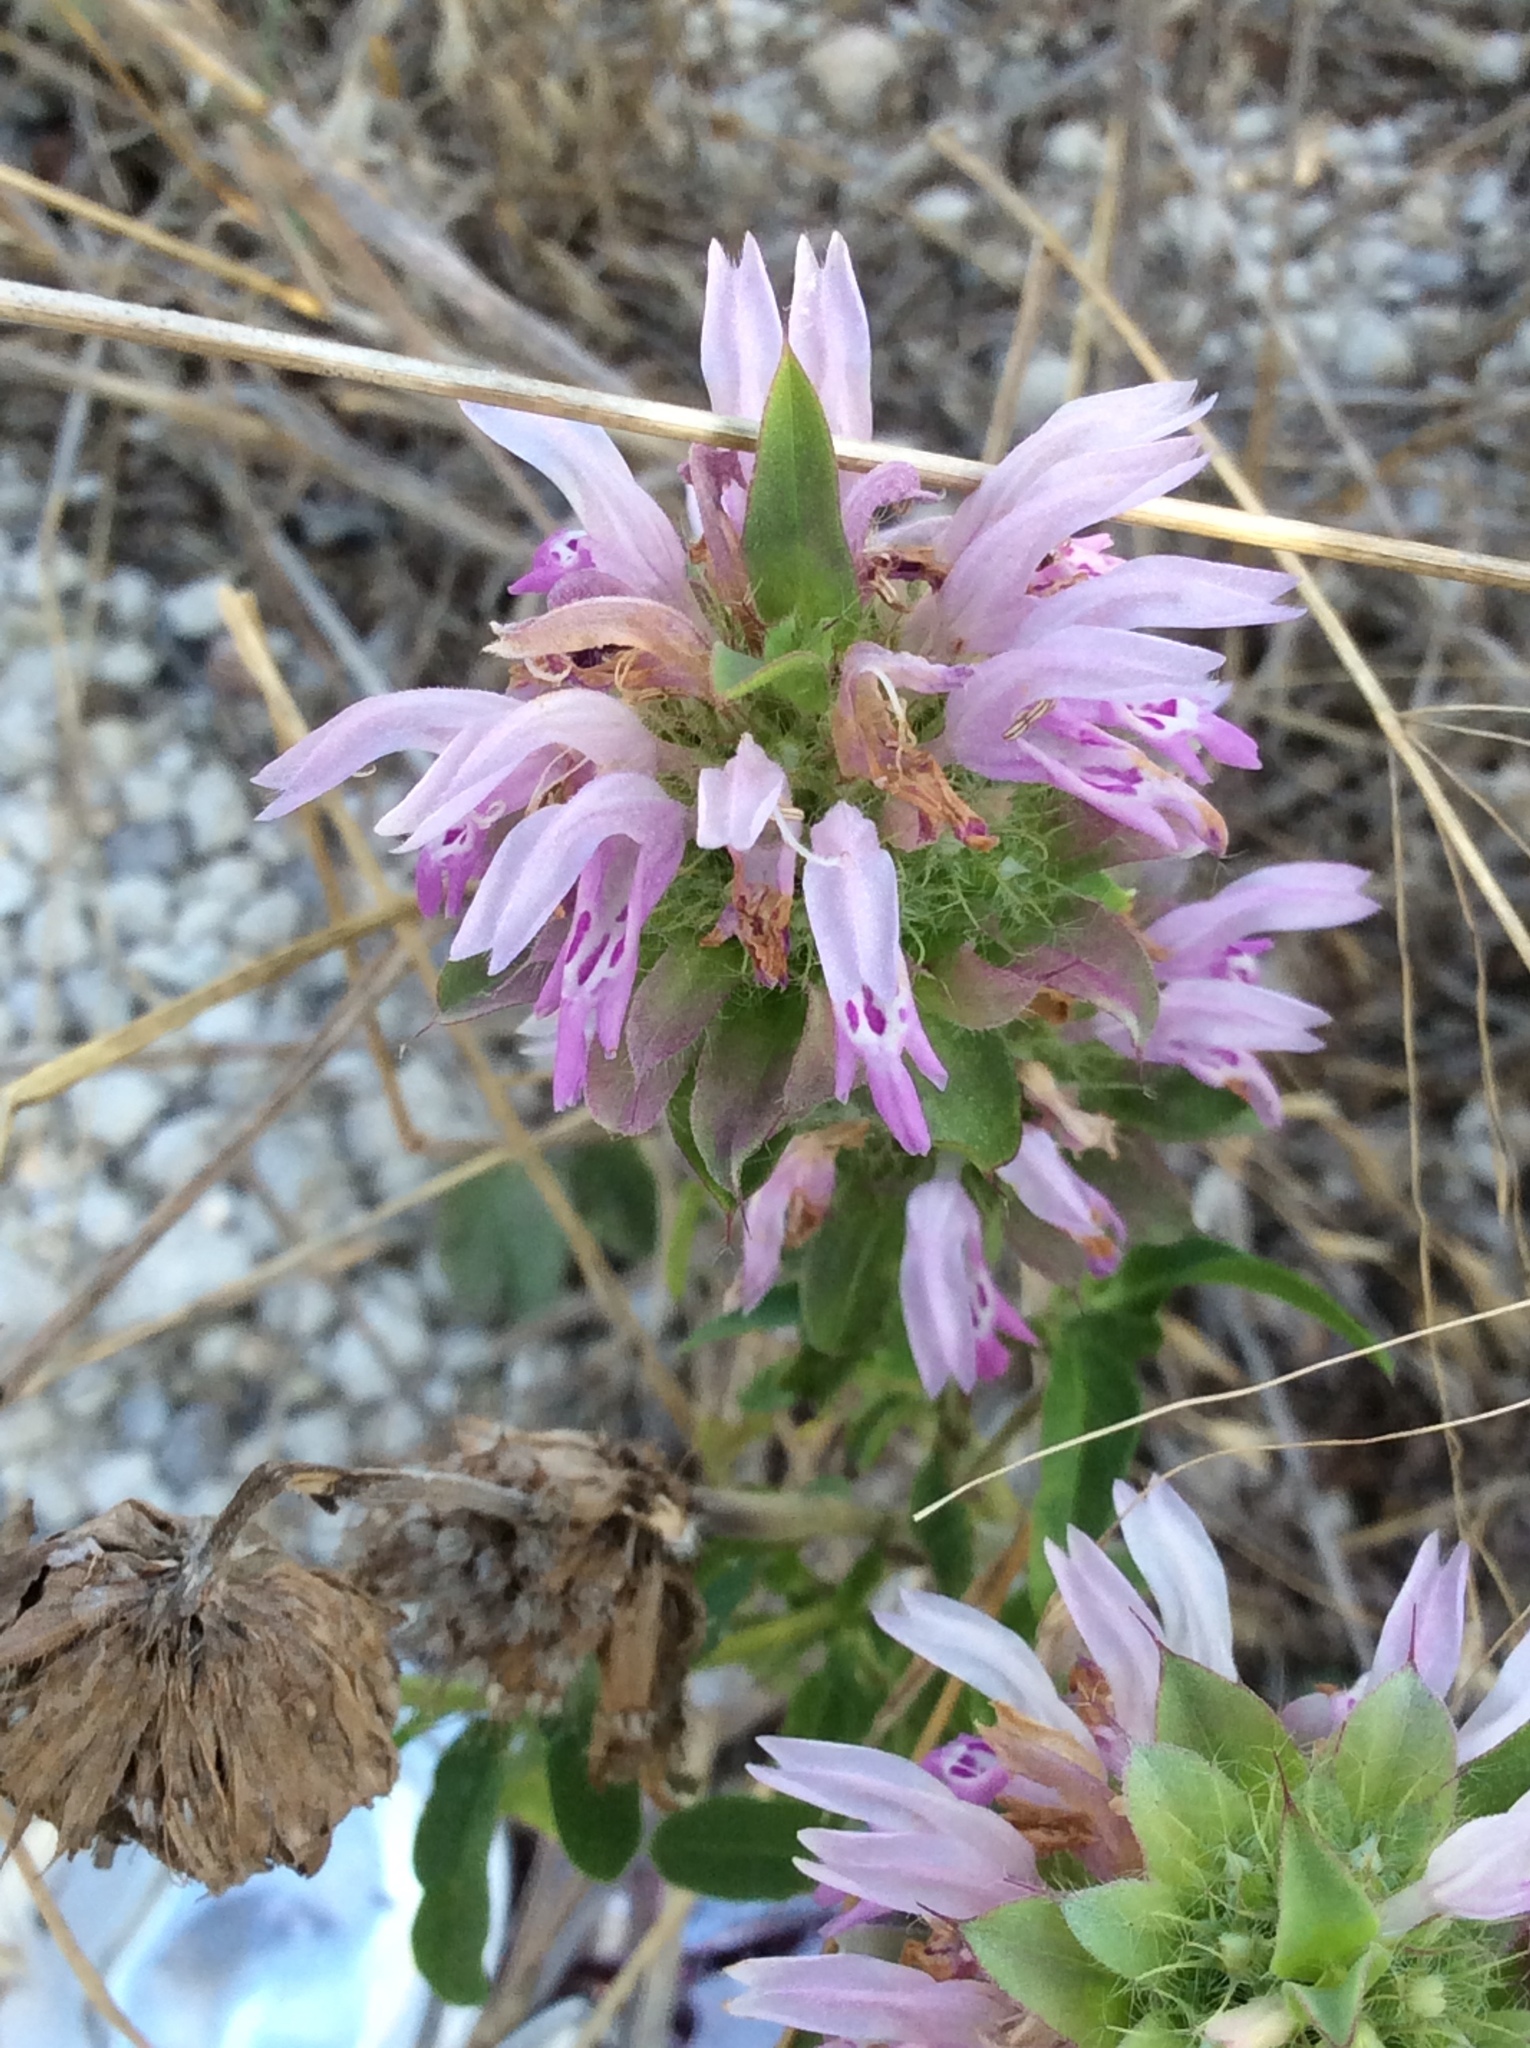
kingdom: Plantae
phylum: Tracheophyta
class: Magnoliopsida
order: Lamiales
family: Lamiaceae
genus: Monarda
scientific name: Monarda citriodora
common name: Lemon beebalm
